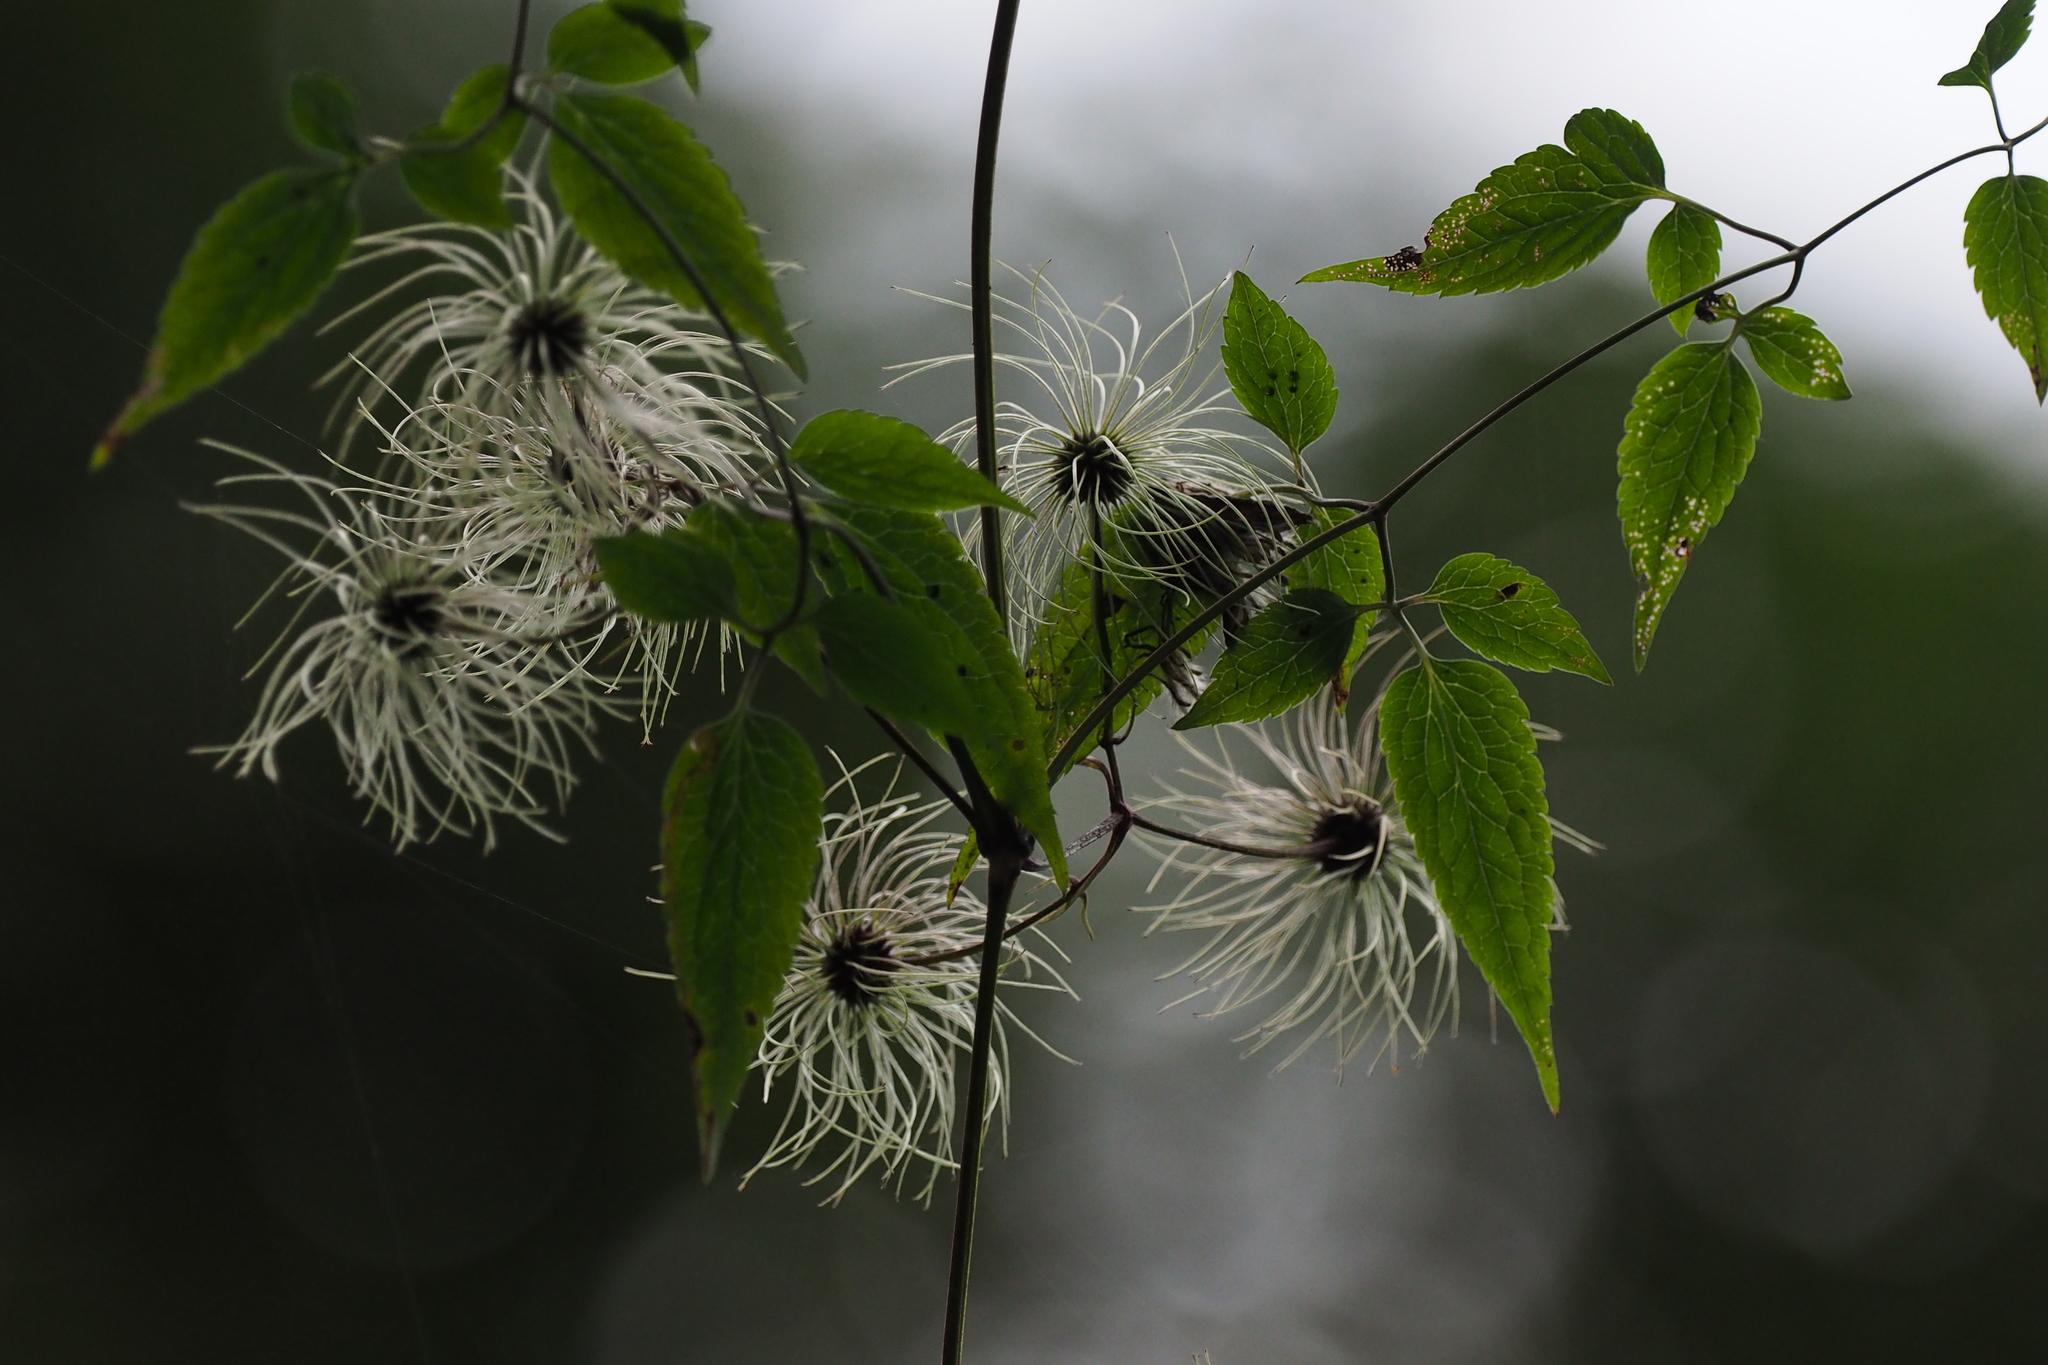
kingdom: Plantae
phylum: Tracheophyta
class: Magnoliopsida
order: Ranunculales
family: Ranunculaceae
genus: Clematis
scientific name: Clematis leschenaultiana
